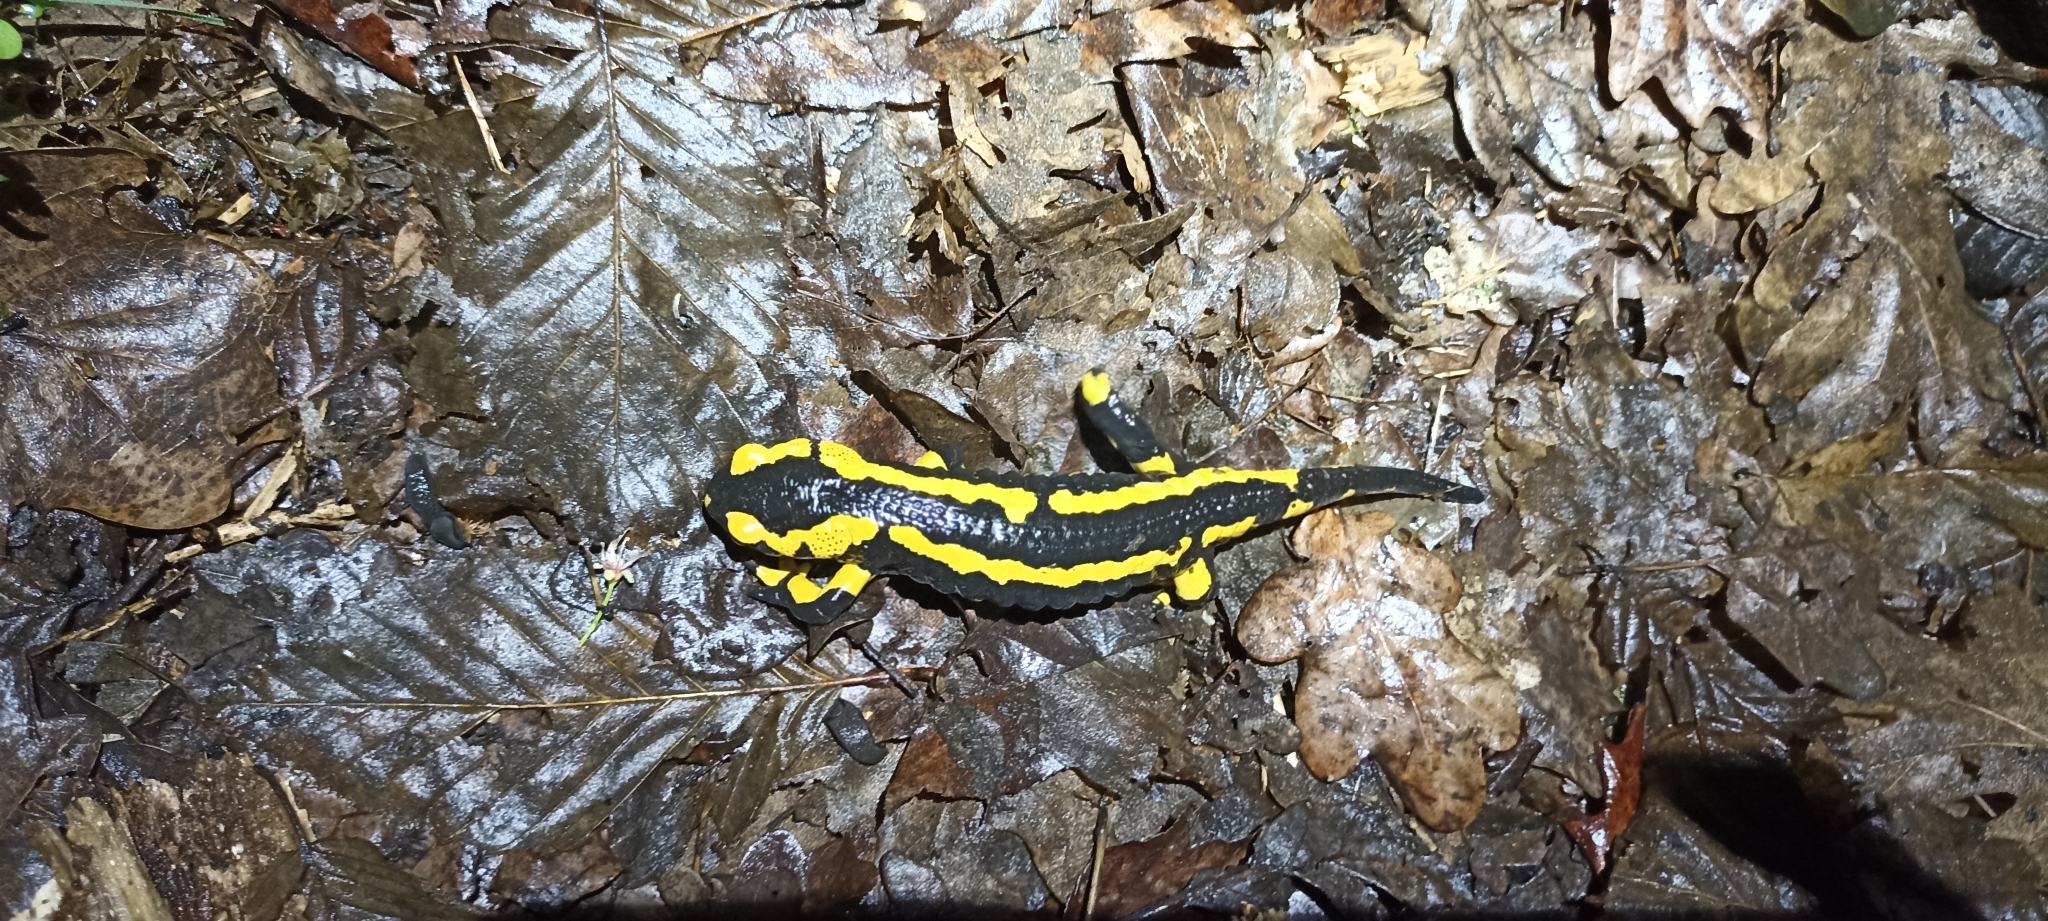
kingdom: Animalia
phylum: Chordata
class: Amphibia
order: Caudata
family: Salamandridae
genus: Salamandra
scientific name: Salamandra salamandra
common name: Fire salamander
